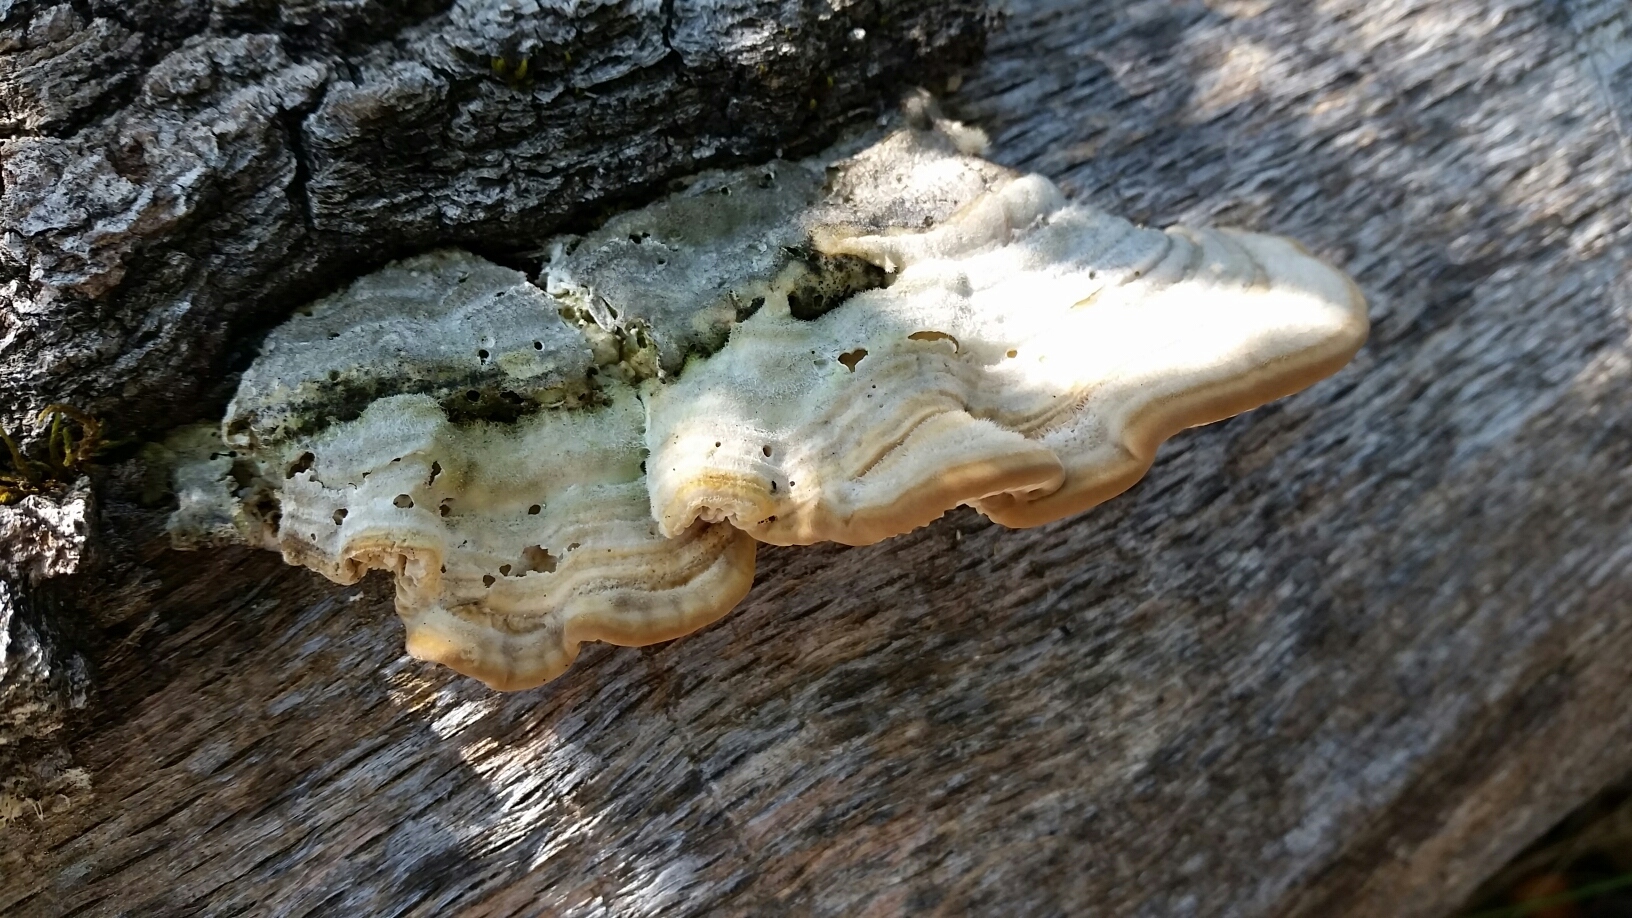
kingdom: Fungi
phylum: Basidiomycota
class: Agaricomycetes
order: Polyporales
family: Polyporaceae
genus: Lenzites
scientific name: Lenzites betulinus
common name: Birch mazegill
